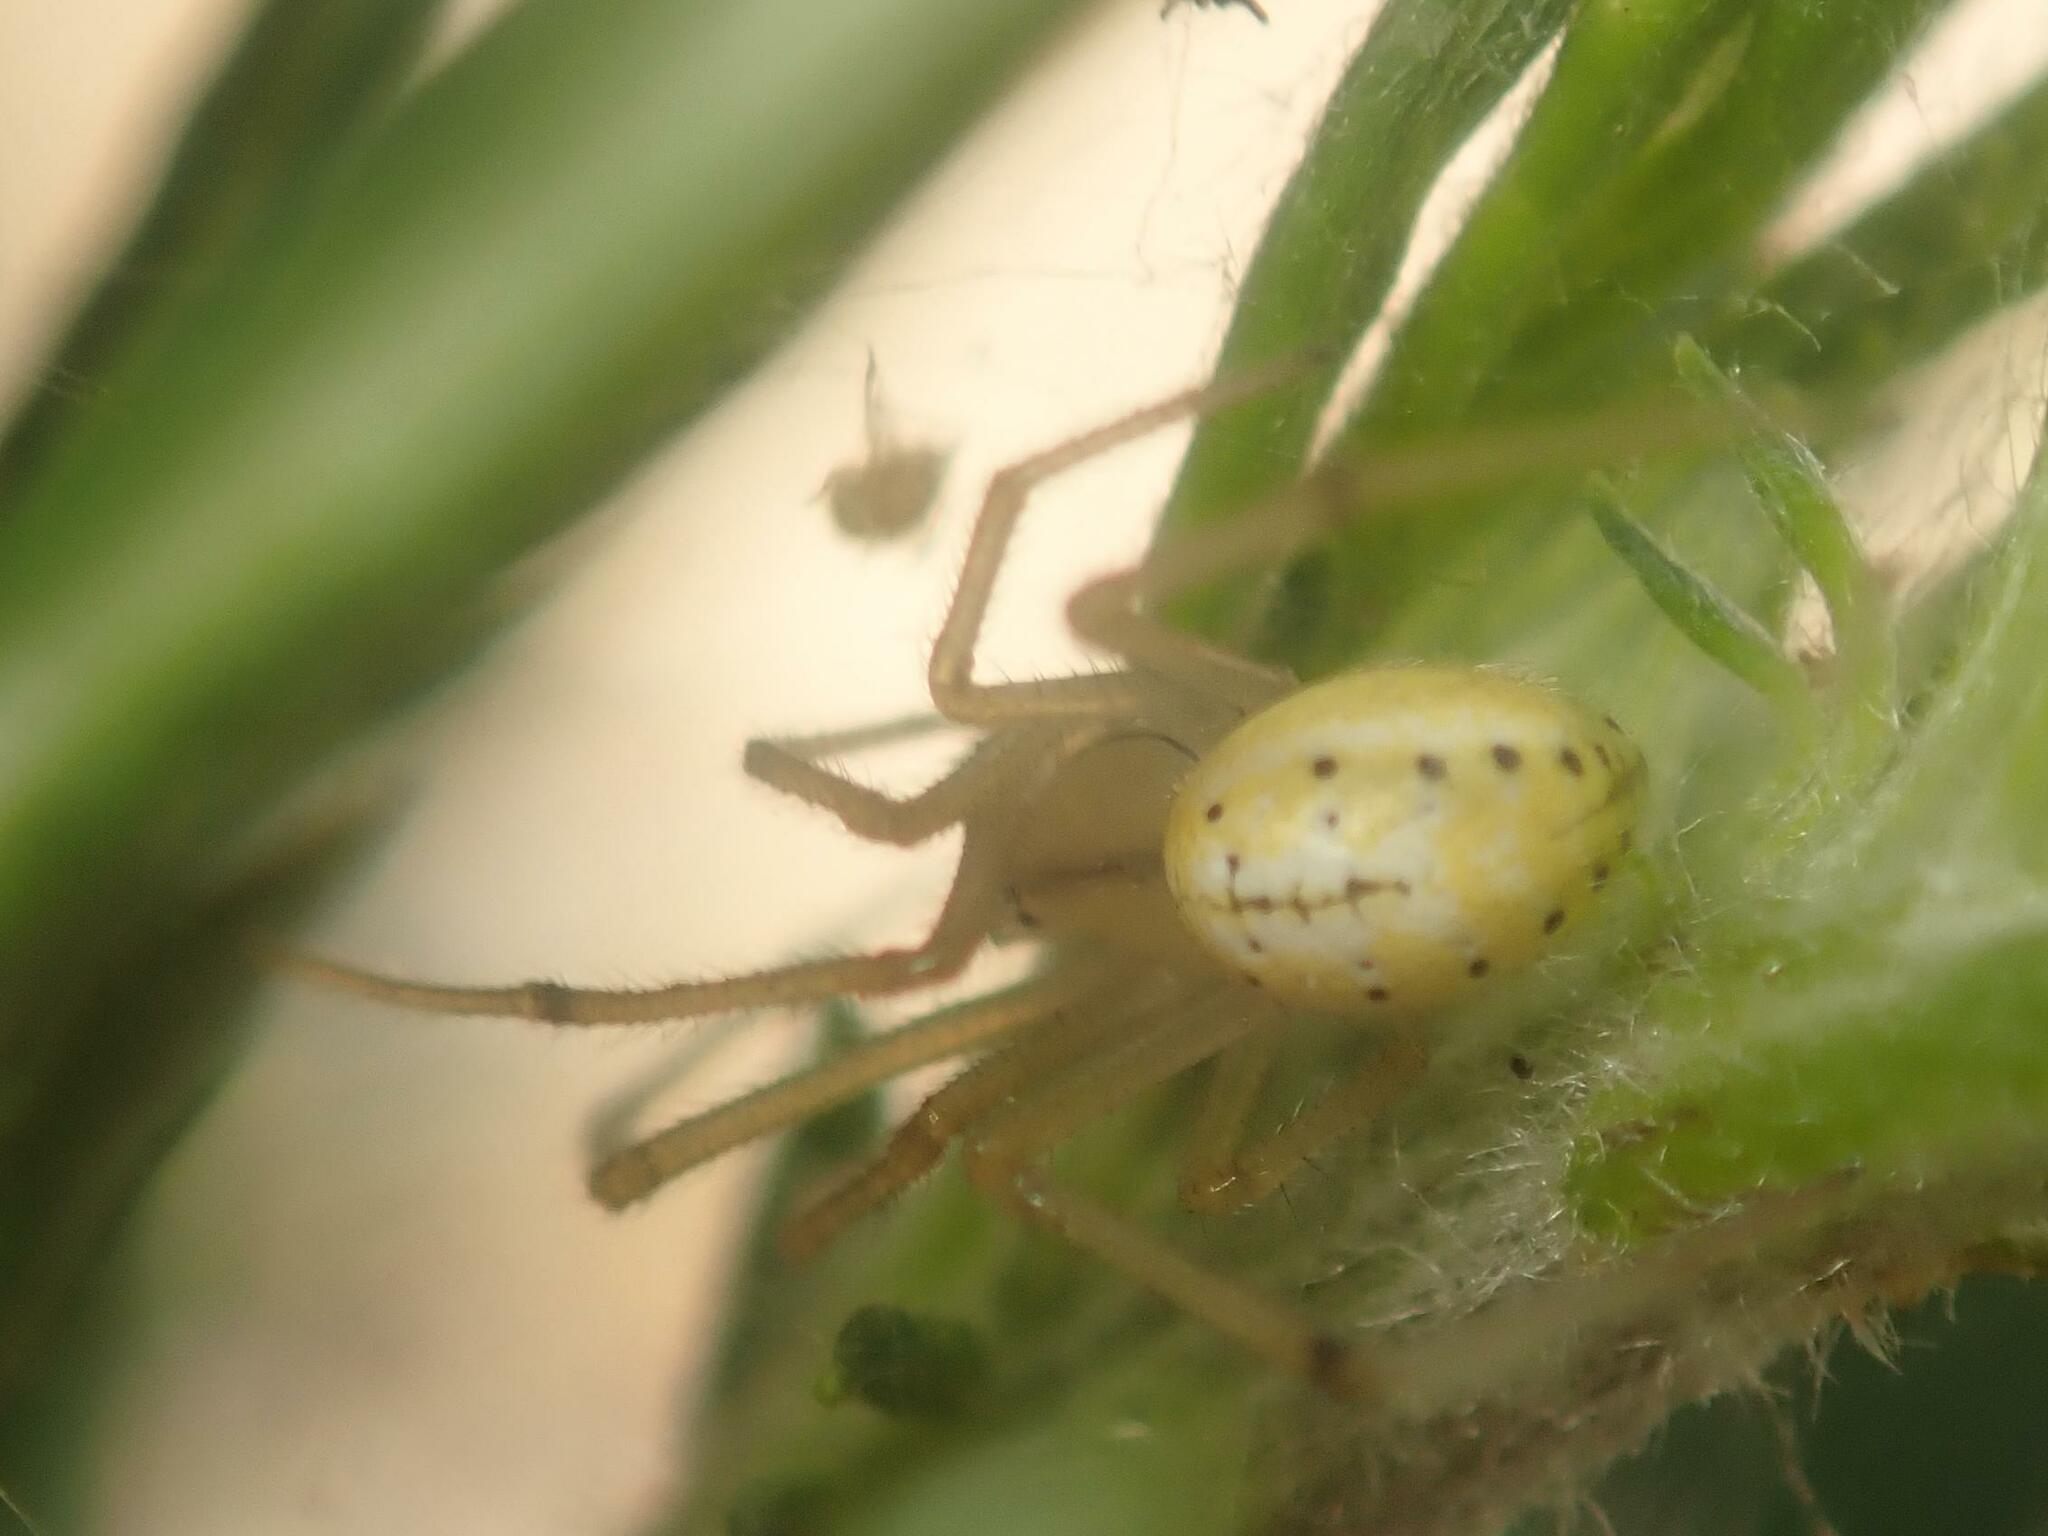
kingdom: Animalia
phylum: Arthropoda
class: Arachnida
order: Araneae
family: Theridiidae
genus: Enoplognatha
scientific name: Enoplognatha ovata
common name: Common candy-striped spider
